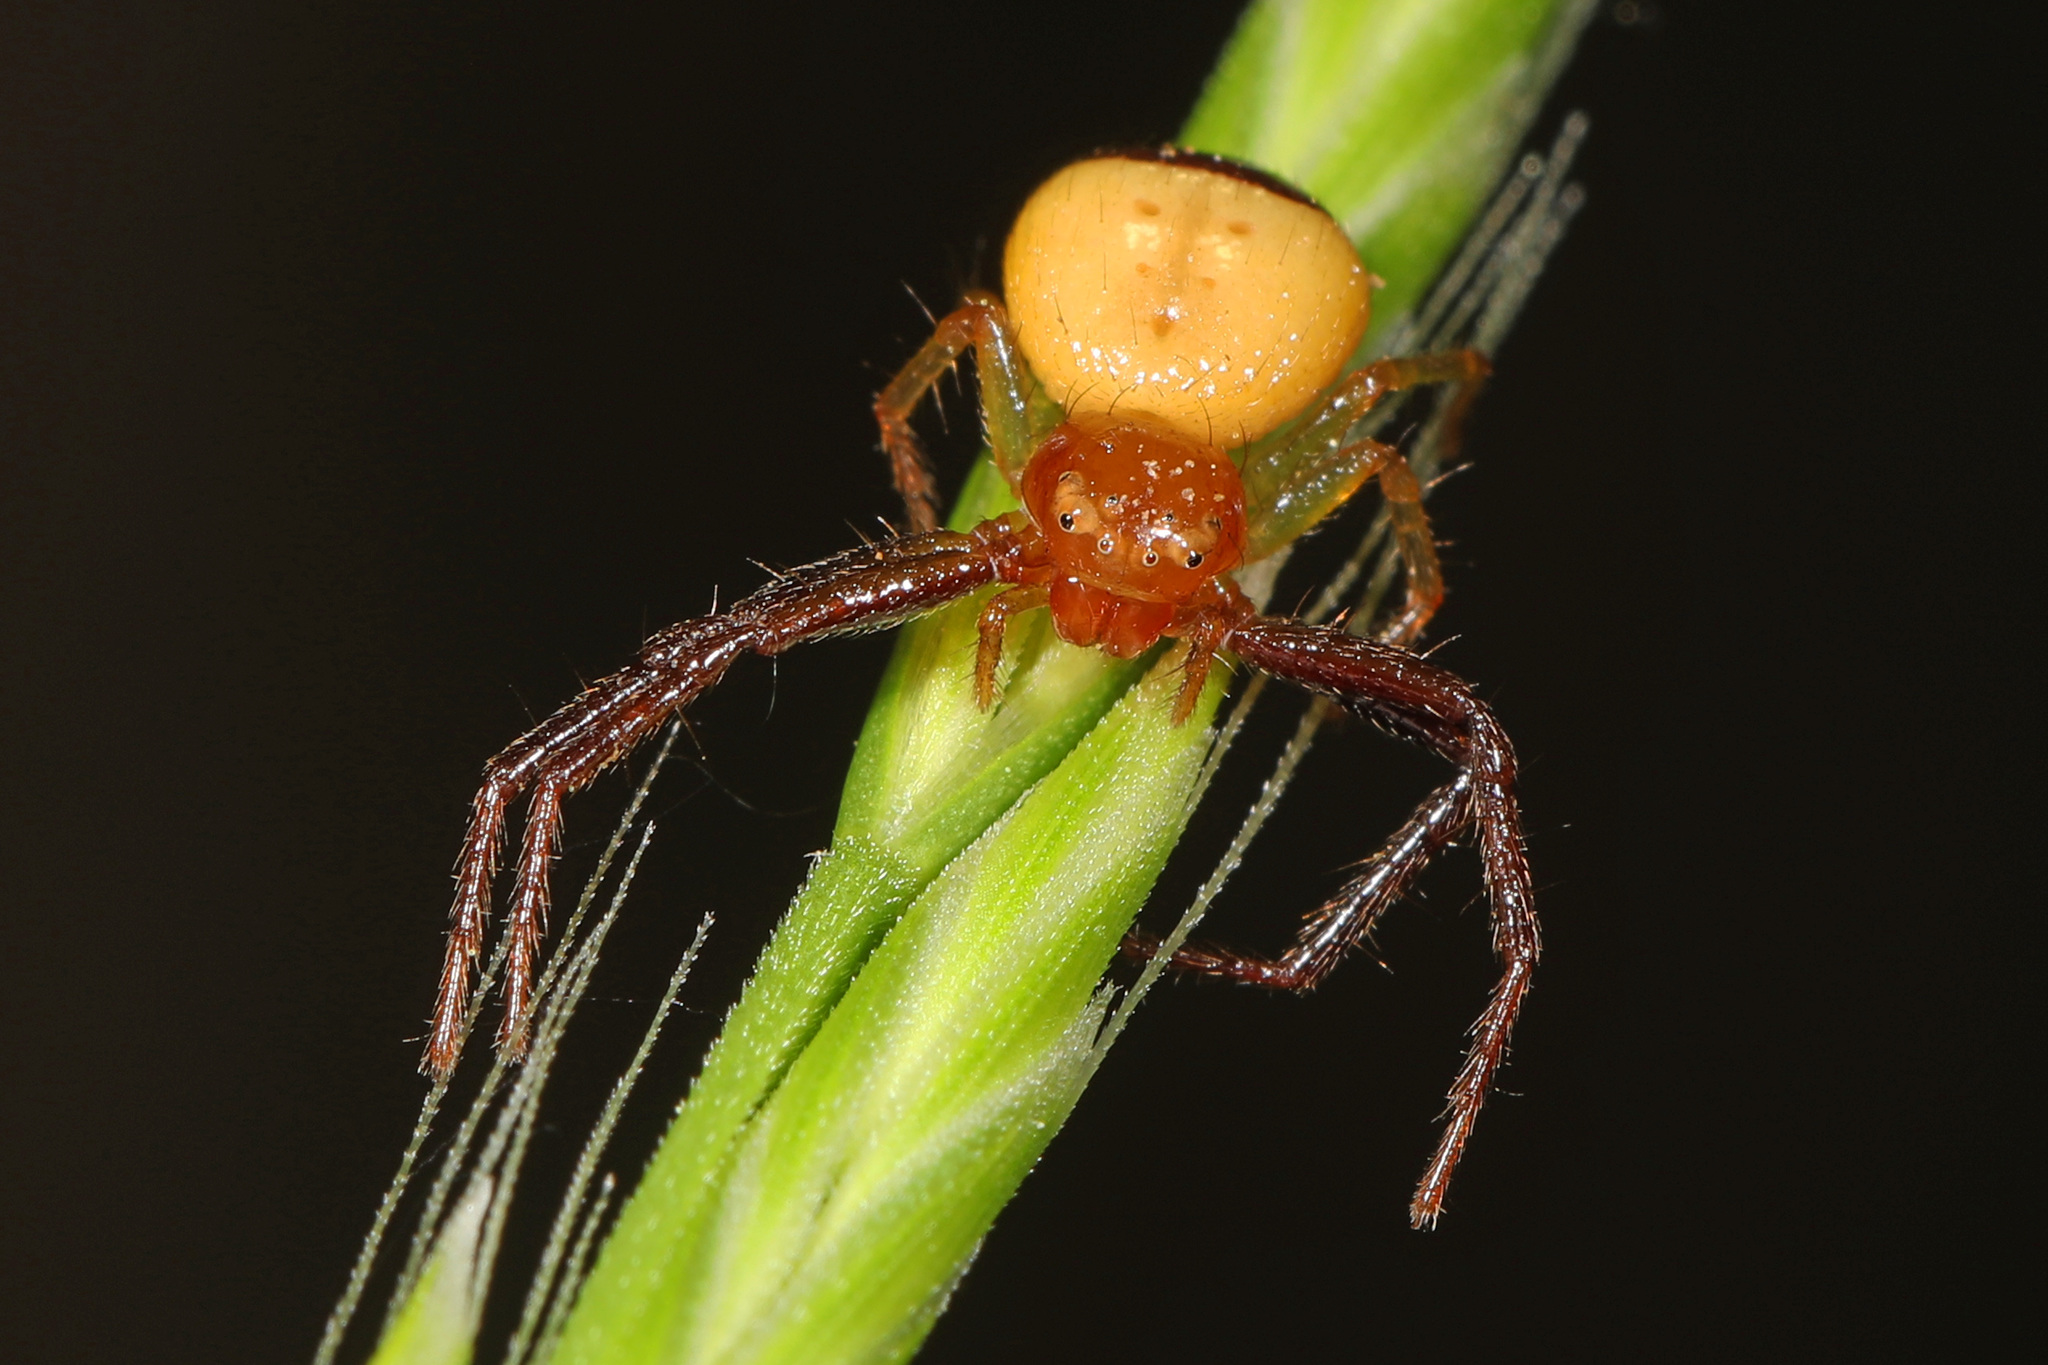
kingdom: Animalia
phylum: Arthropoda
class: Arachnida
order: Araneae
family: Thomisidae
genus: Synema
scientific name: Synema parvulum
